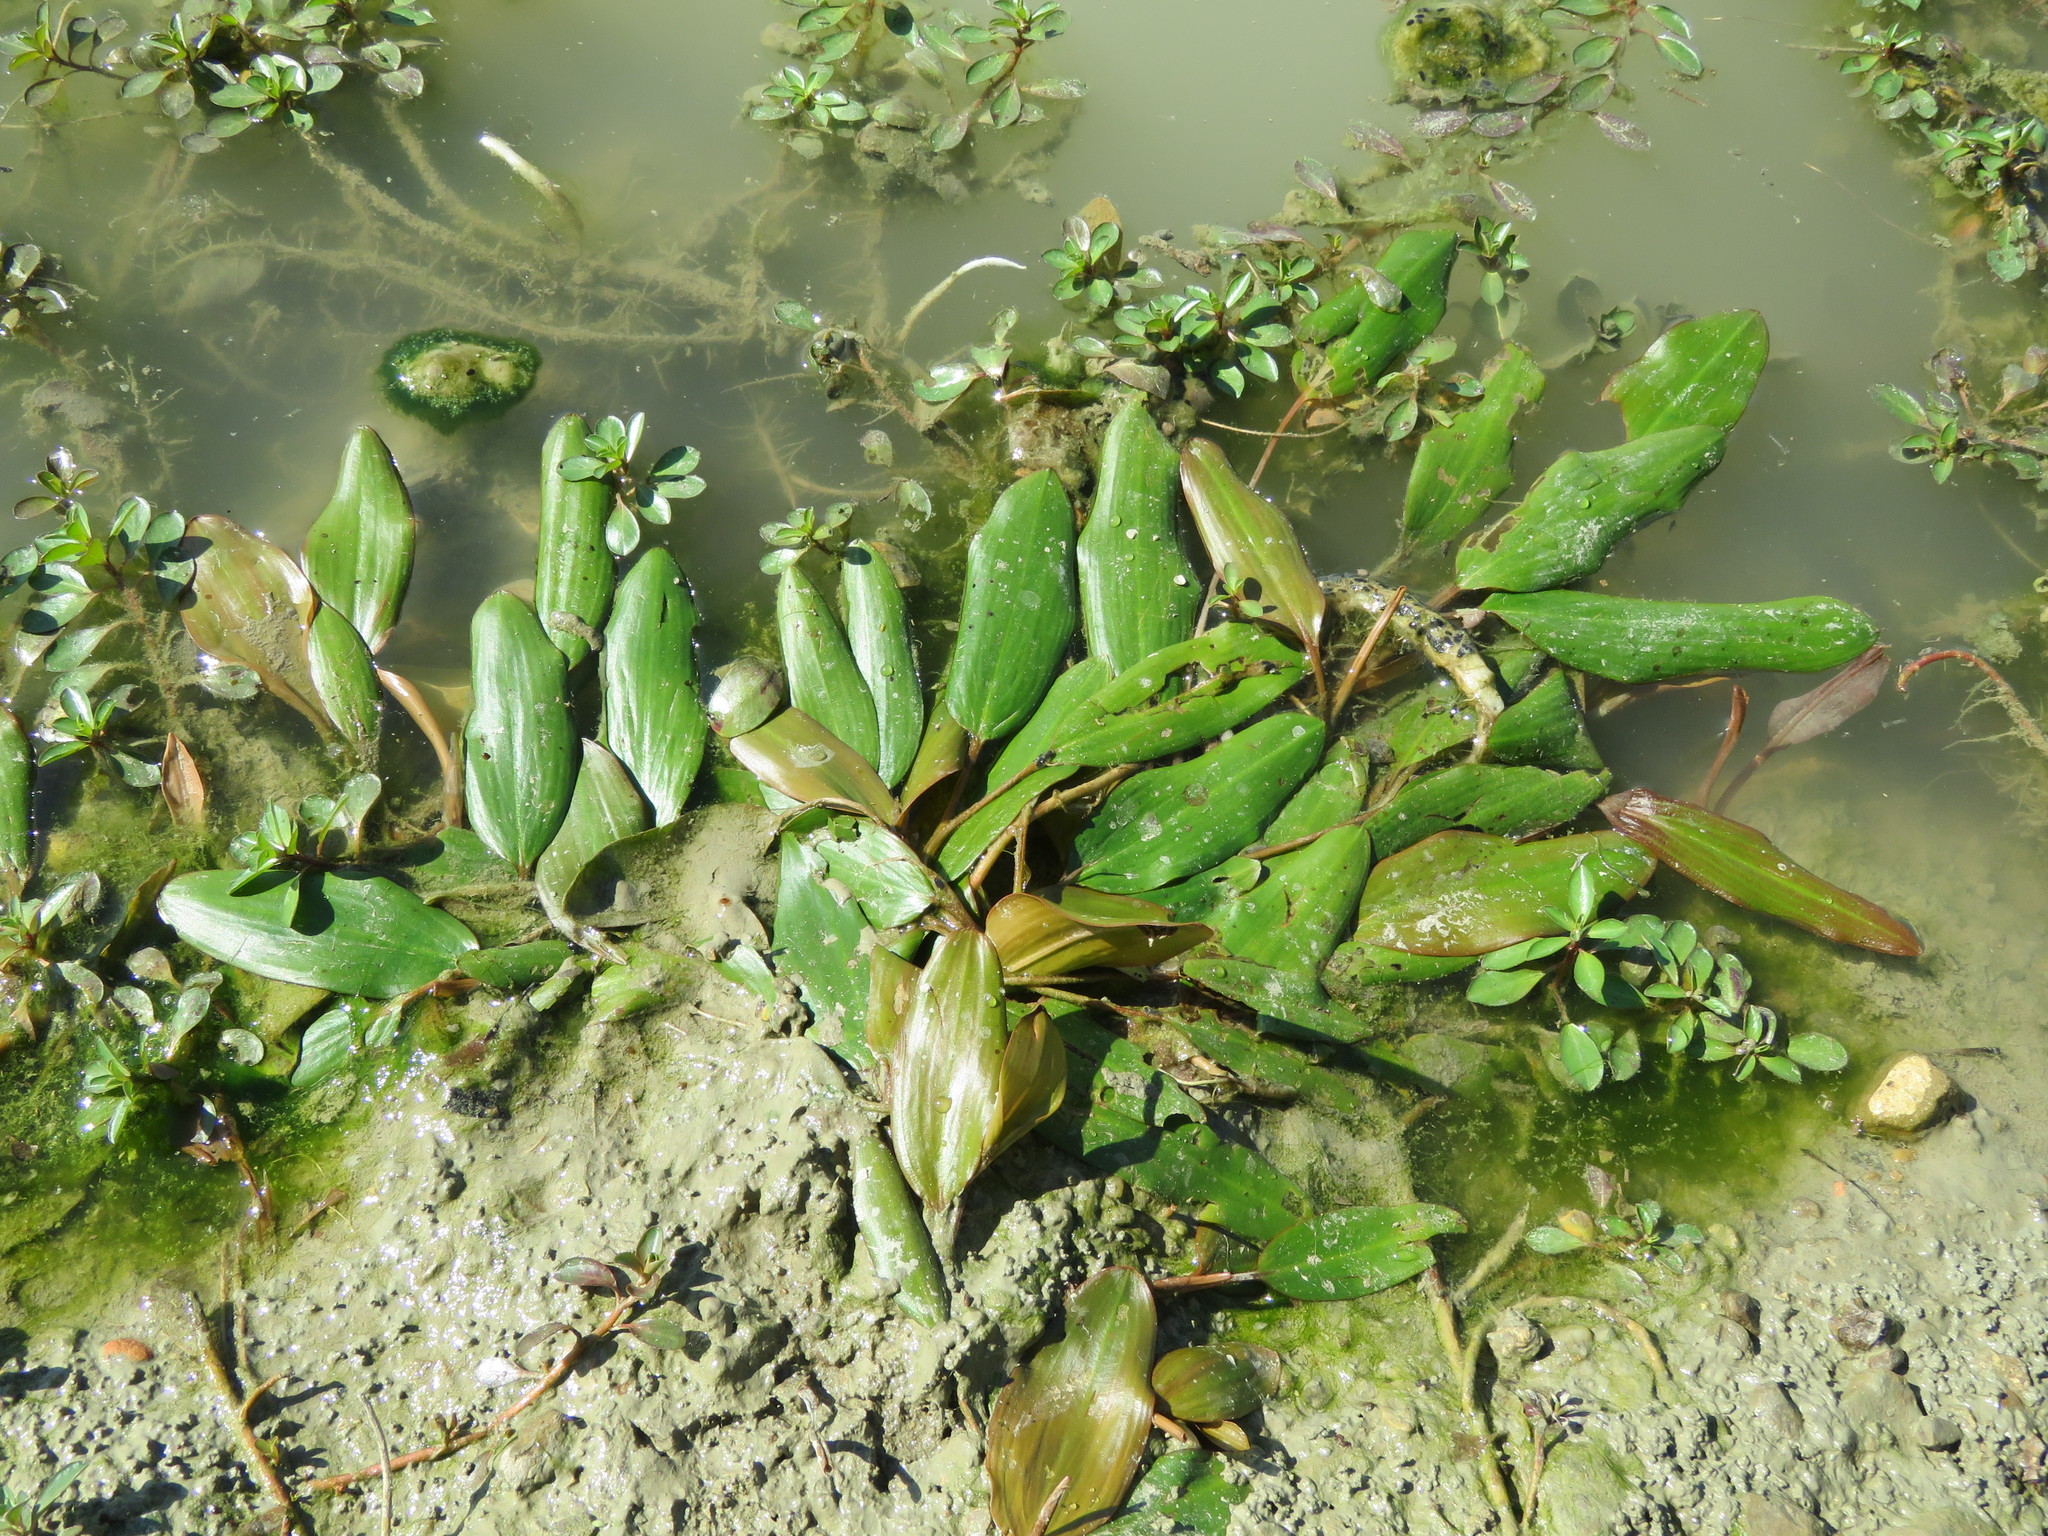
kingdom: Plantae
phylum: Tracheophyta
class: Liliopsida
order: Alismatales
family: Potamogetonaceae
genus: Potamogeton
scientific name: Potamogeton nodosus
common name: Loddon pondweed
